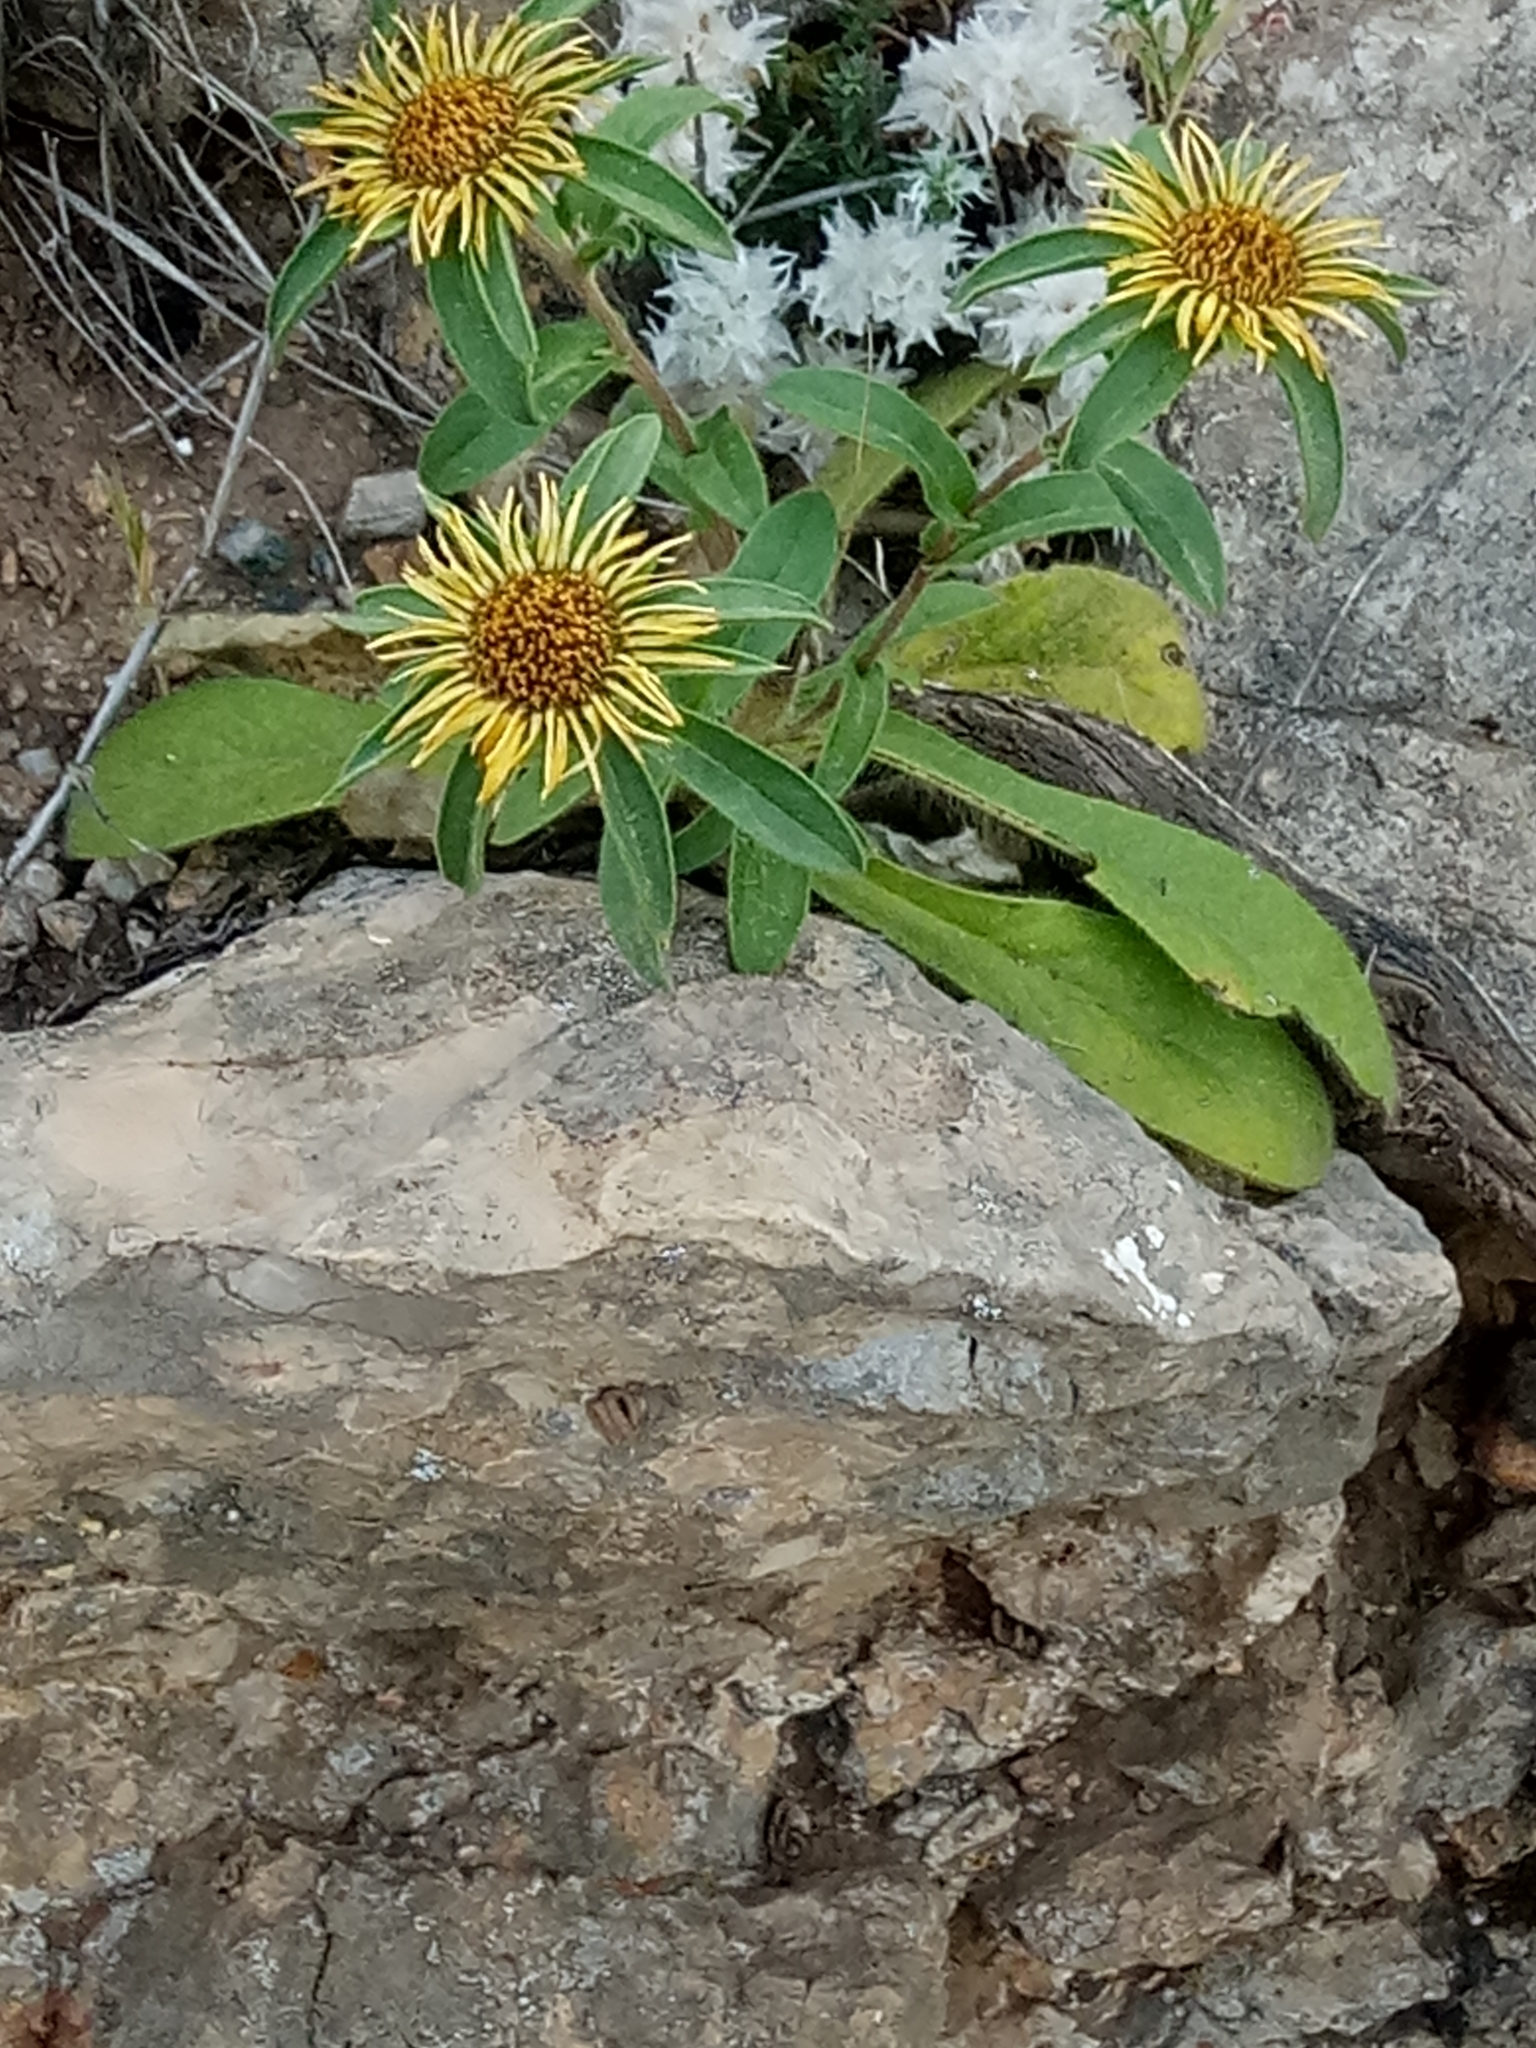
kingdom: Plantae
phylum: Tracheophyta
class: Magnoliopsida
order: Asterales
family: Asteraceae
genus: Pallenis
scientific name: Pallenis spinosa
